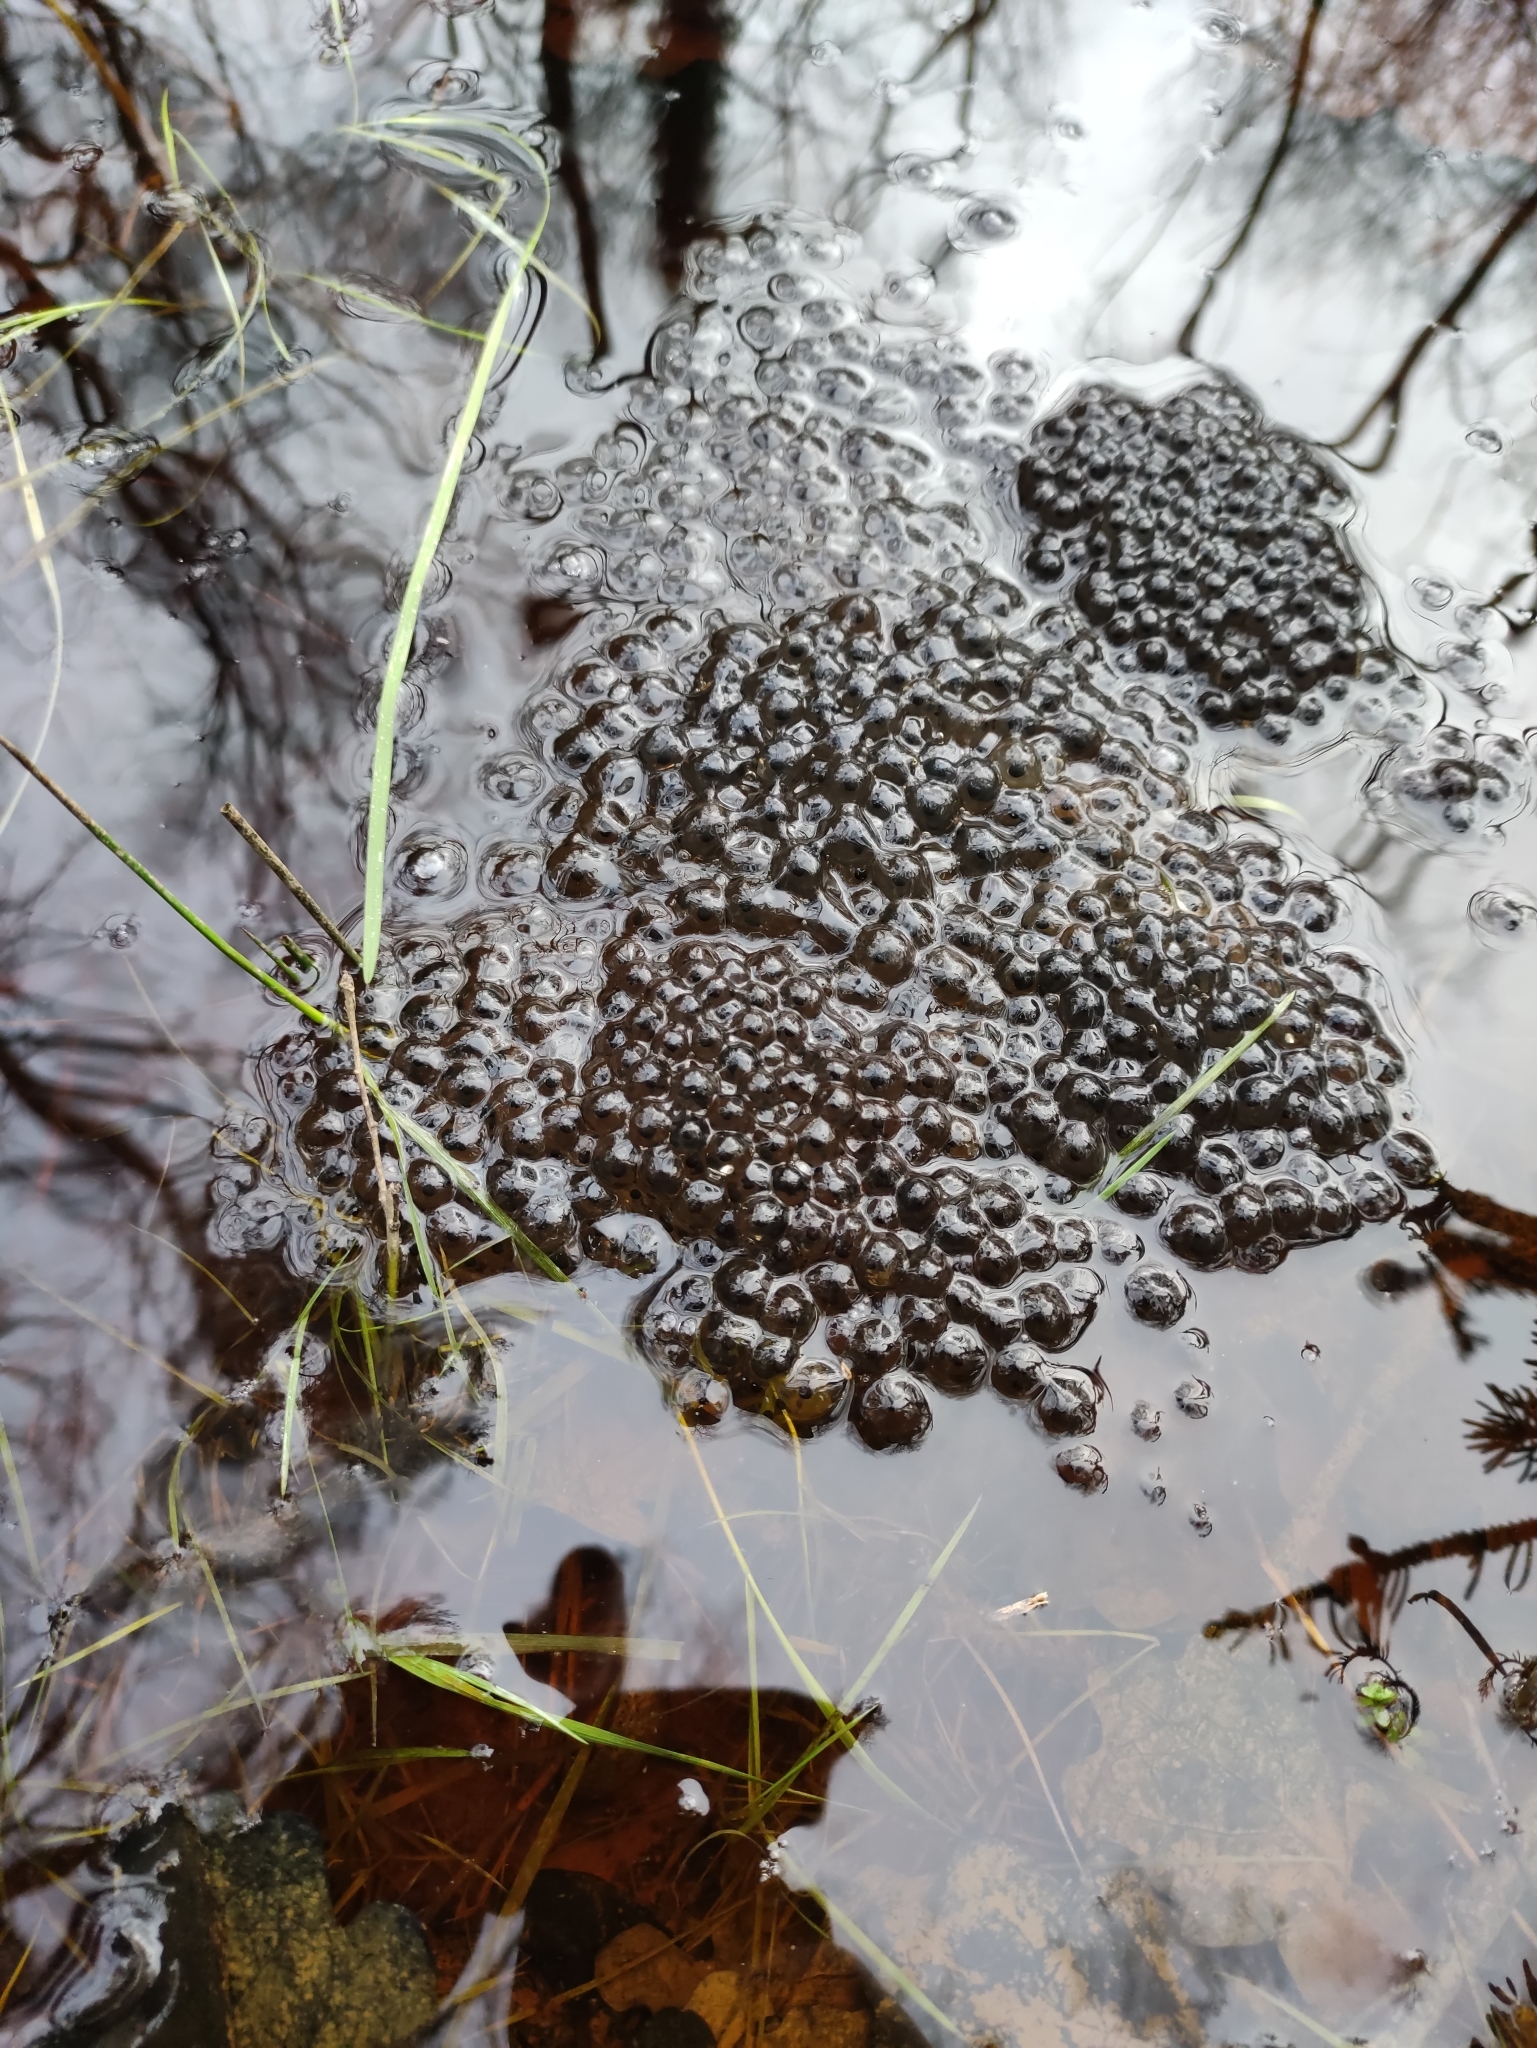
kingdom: Animalia
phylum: Chordata
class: Amphibia
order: Anura
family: Ranidae
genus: Rana
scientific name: Rana temporaria
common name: Common frog
